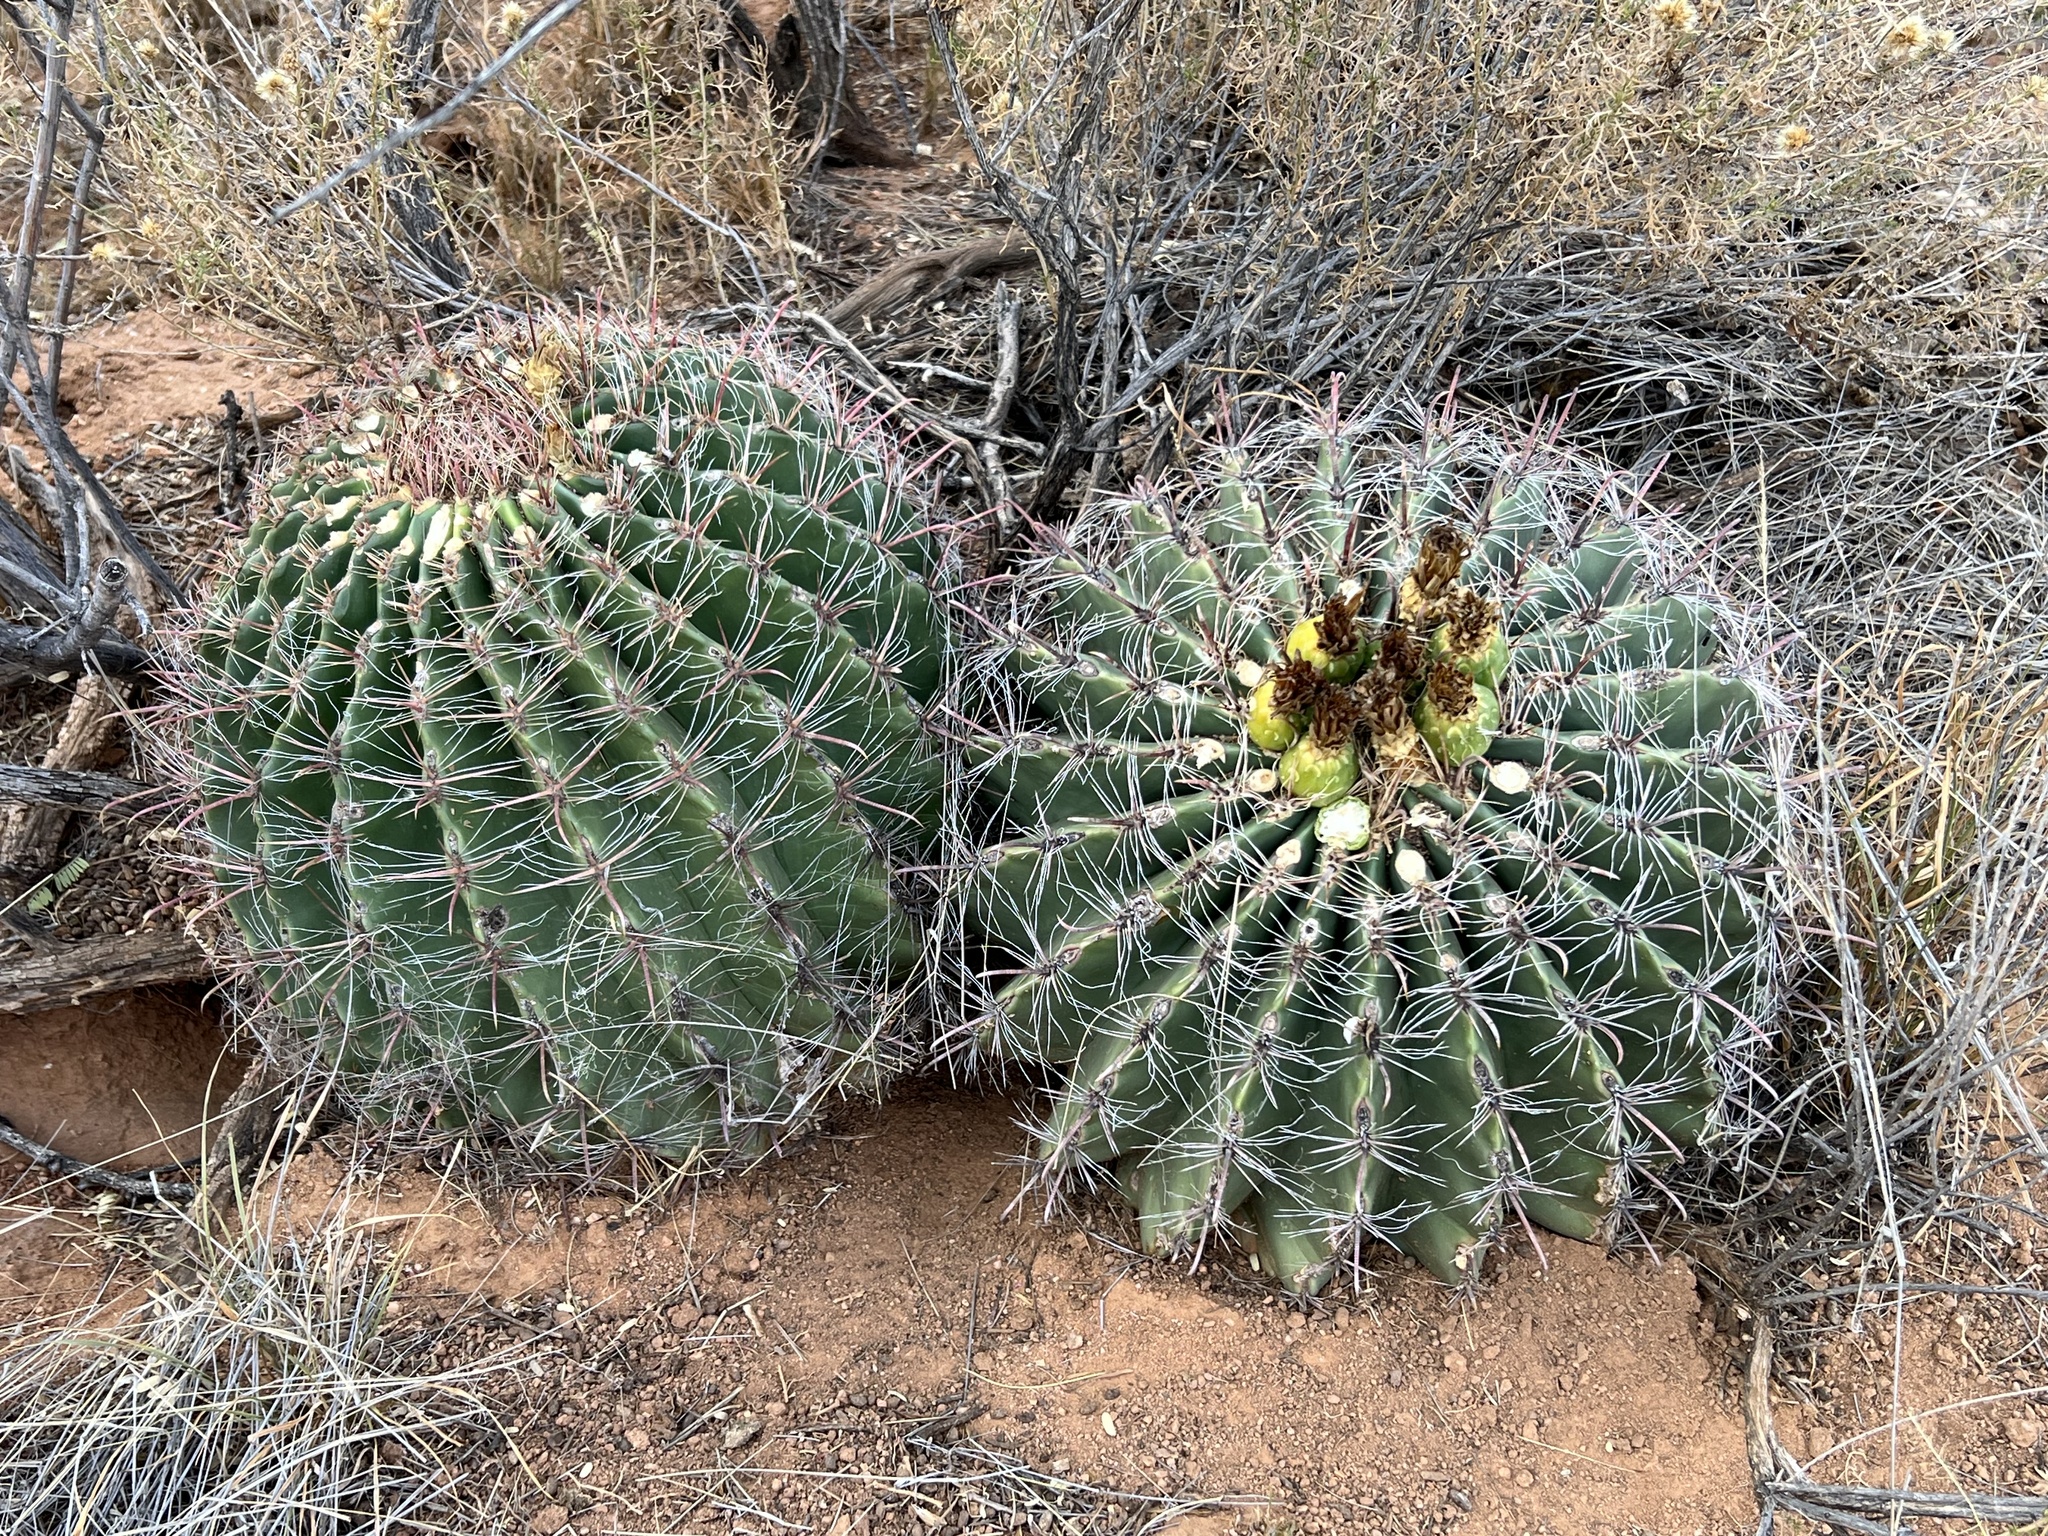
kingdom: Plantae
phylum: Tracheophyta
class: Magnoliopsida
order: Caryophyllales
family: Cactaceae
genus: Ferocactus
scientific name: Ferocactus wislizeni
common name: Candy barrel cactus
